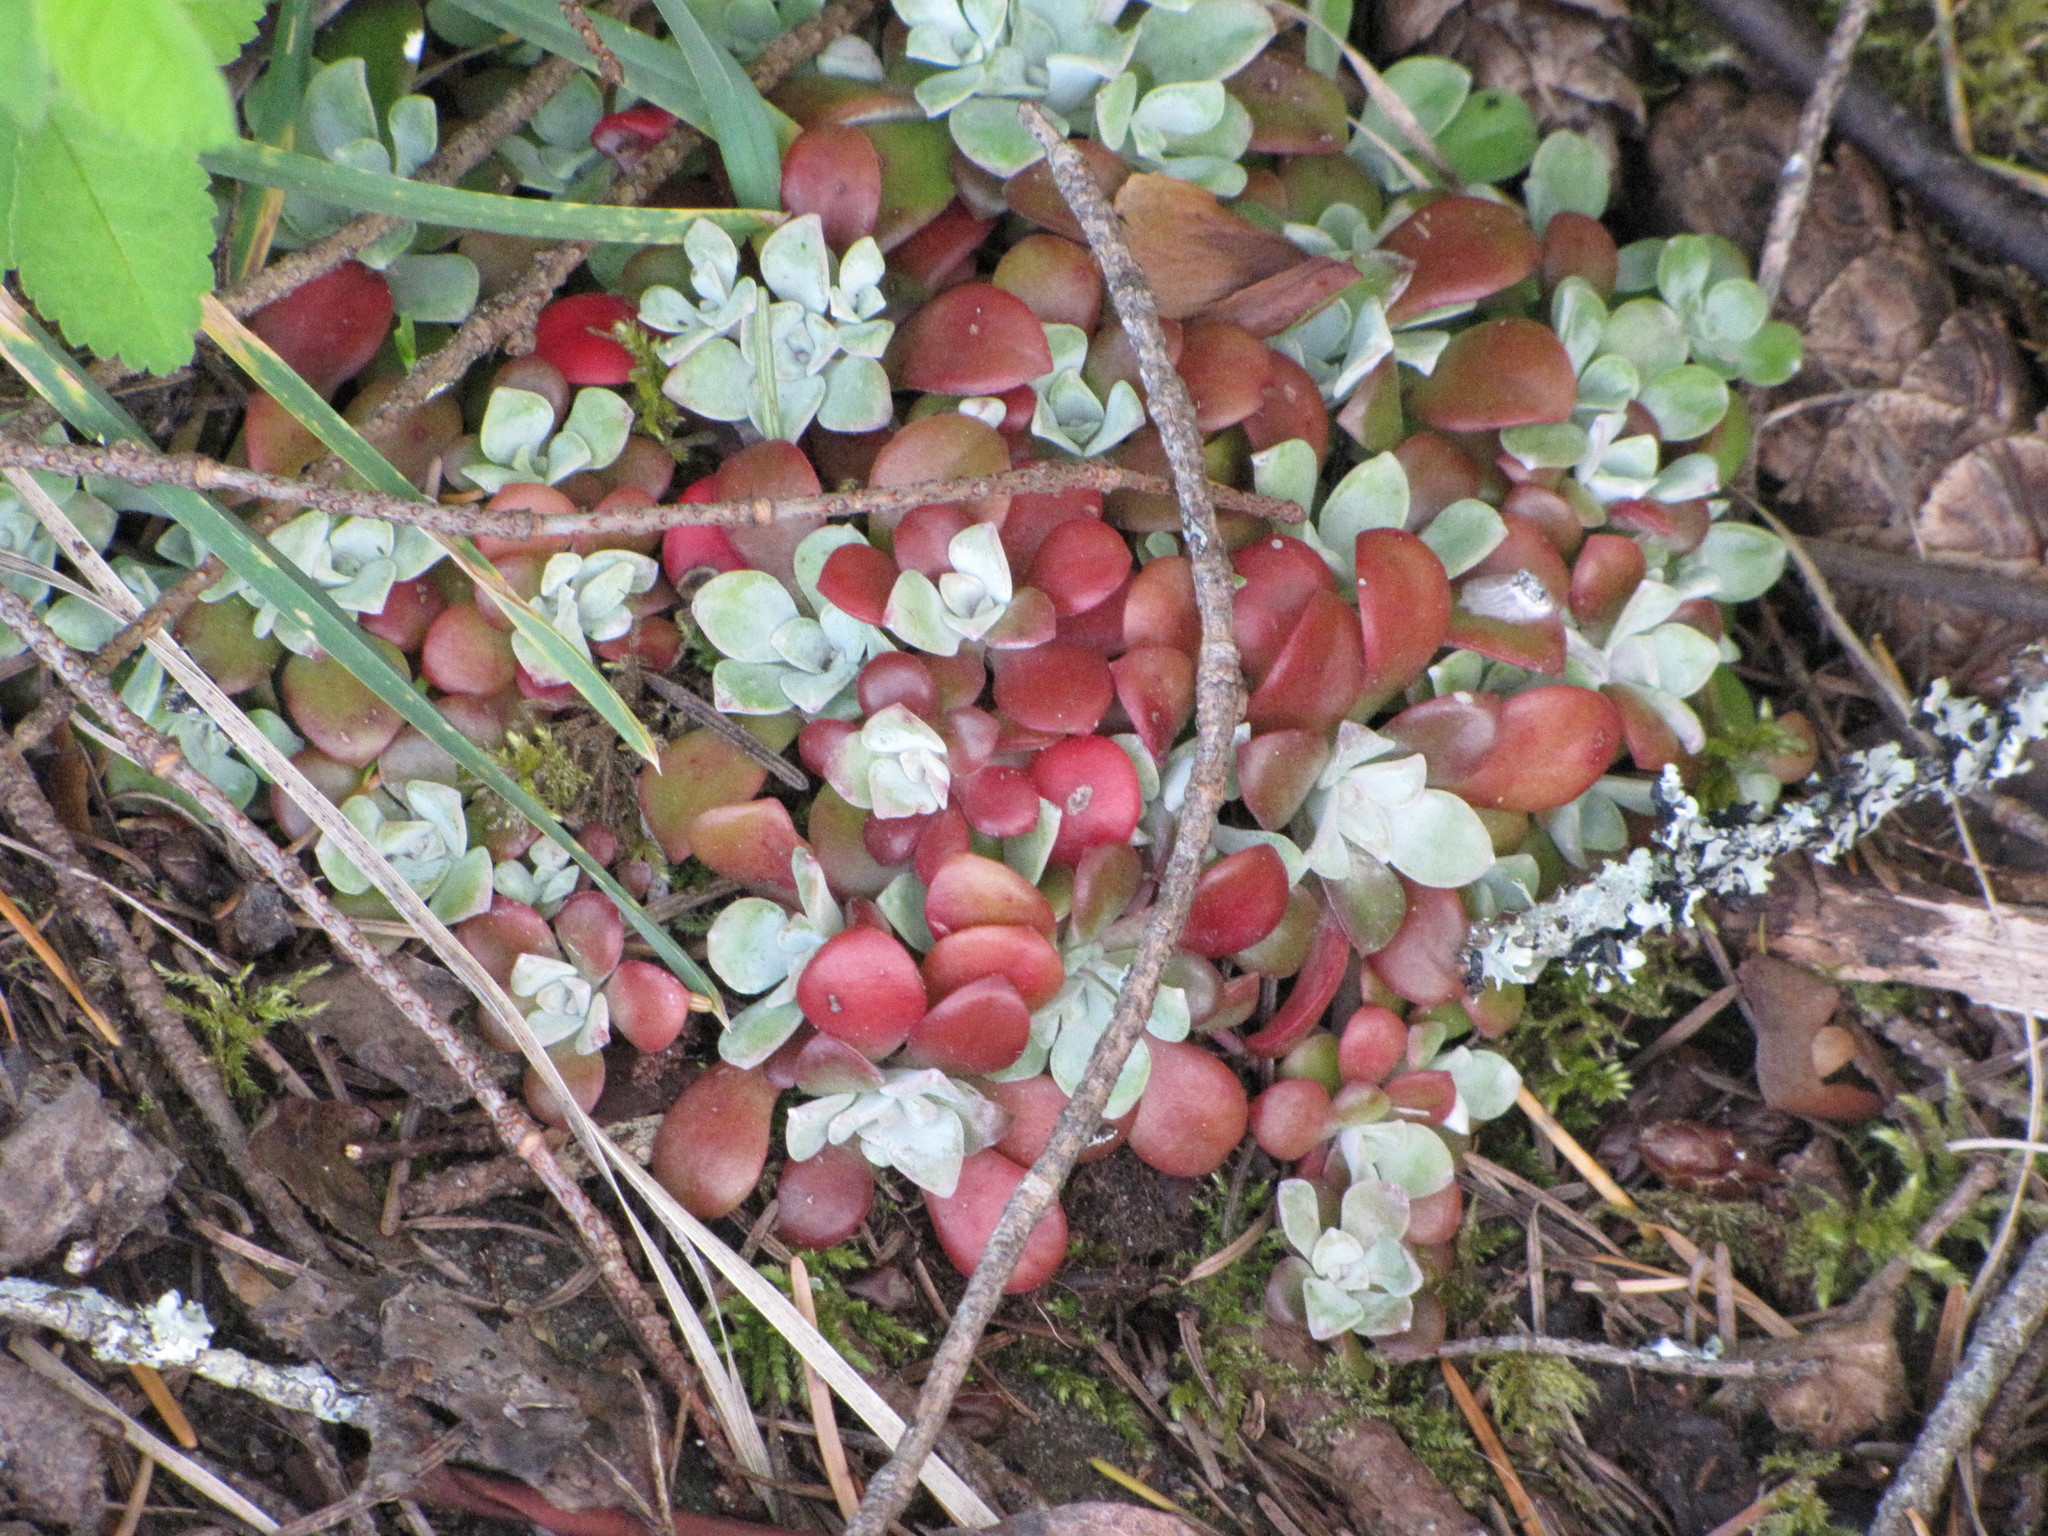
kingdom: Plantae
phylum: Tracheophyta
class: Magnoliopsida
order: Saxifragales
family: Crassulaceae
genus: Sedum
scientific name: Sedum spathulifolium
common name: Colorado stonecrop
